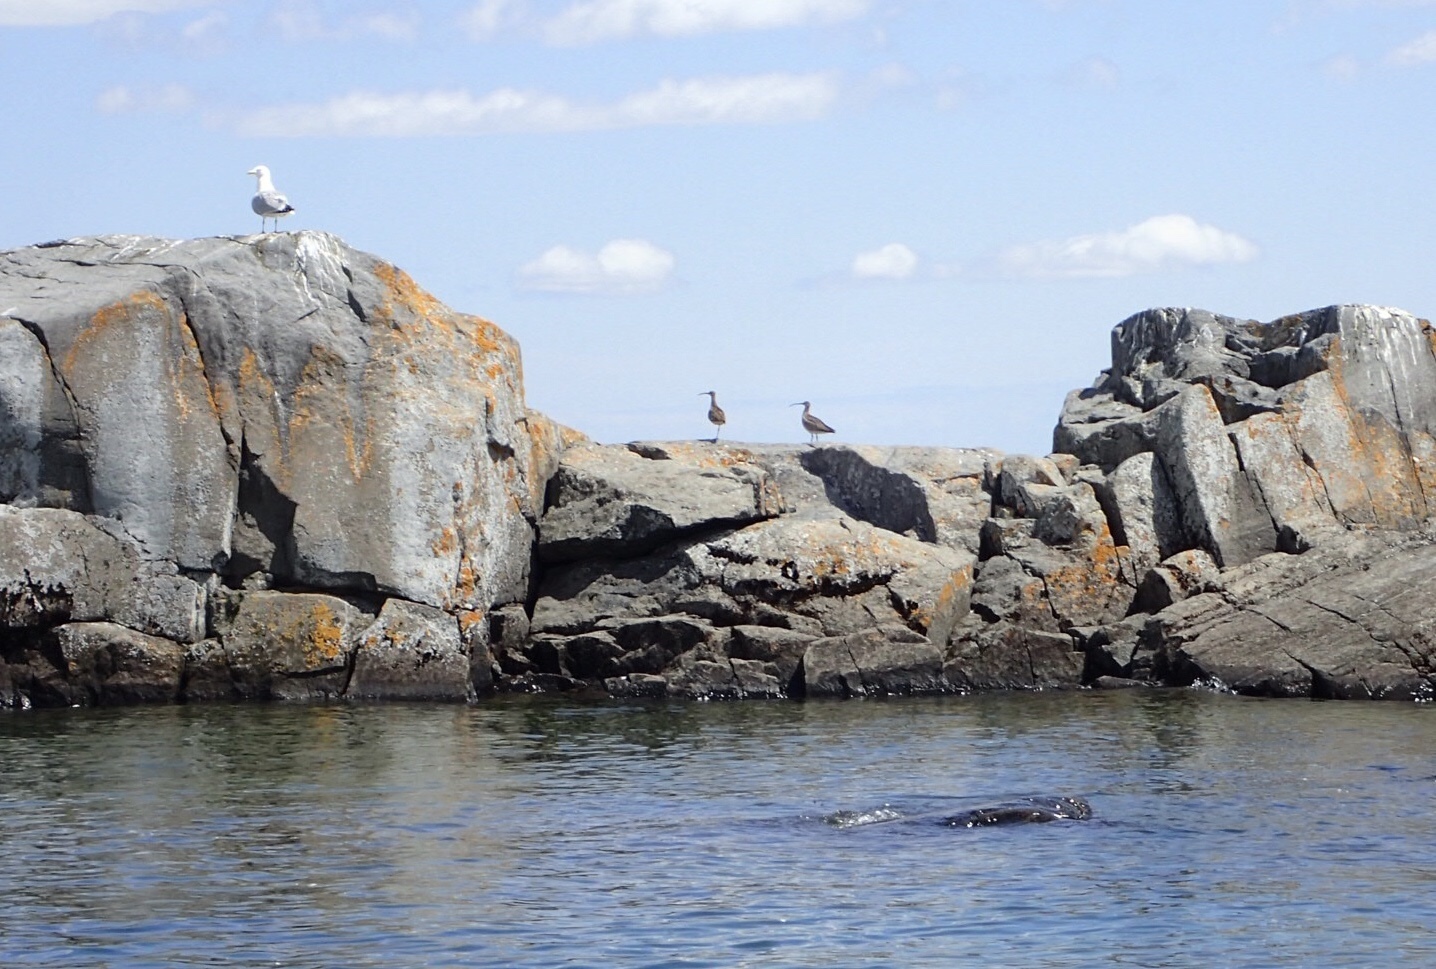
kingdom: Animalia
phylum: Chordata
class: Aves
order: Charadriiformes
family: Scolopacidae
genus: Numenius
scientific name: Numenius phaeopus
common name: Whimbrel
